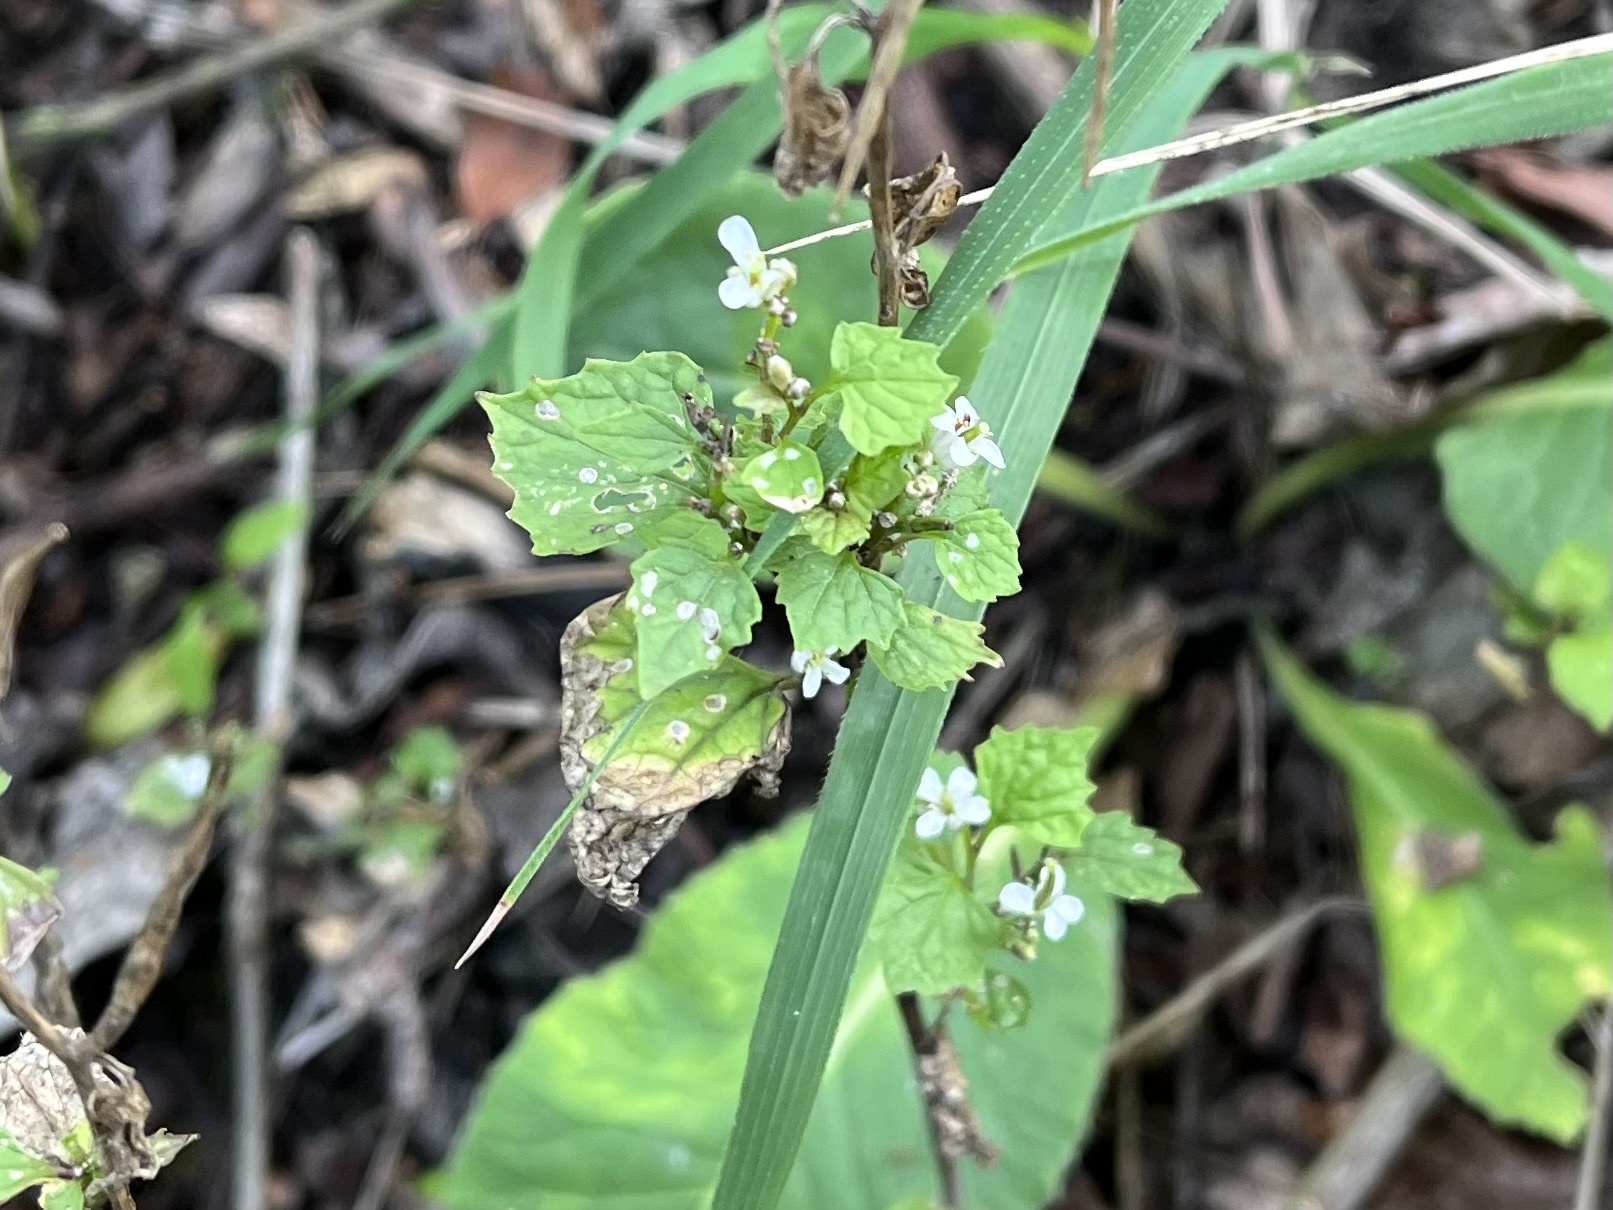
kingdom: Plantae
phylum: Tracheophyta
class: Magnoliopsida
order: Brassicales
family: Brassicaceae
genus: Alliaria
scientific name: Alliaria petiolata
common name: Garlic mustard
